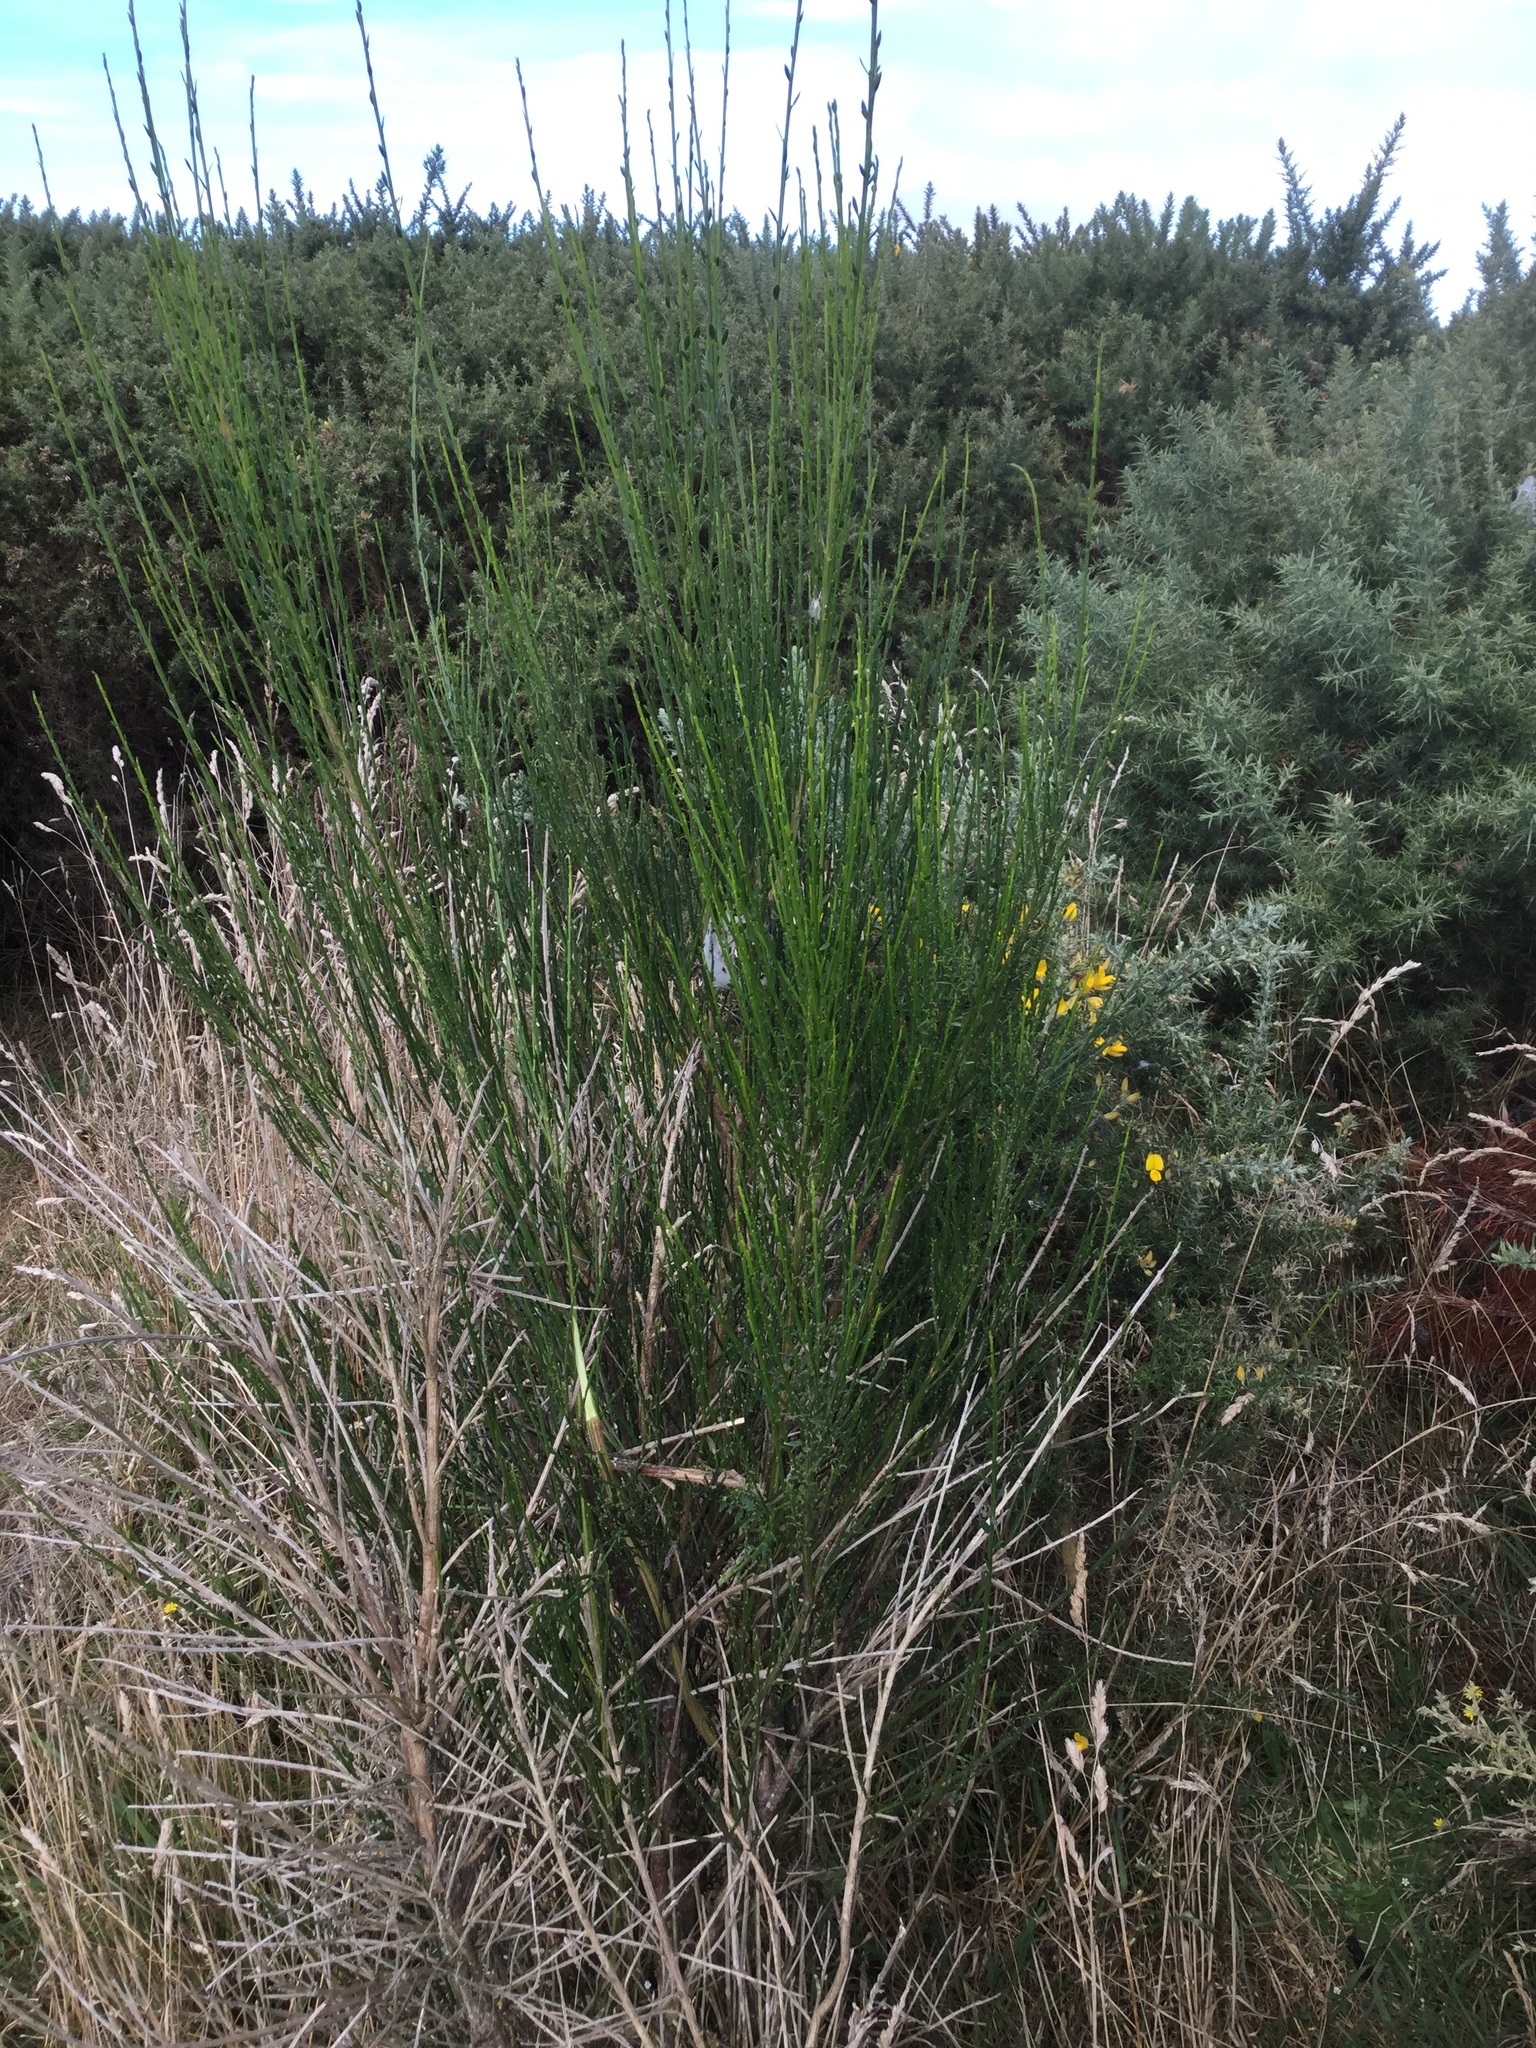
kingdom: Plantae
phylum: Tracheophyta
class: Magnoliopsida
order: Fabales
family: Fabaceae
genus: Cytisus
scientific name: Cytisus scoparius
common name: Scotch broom
